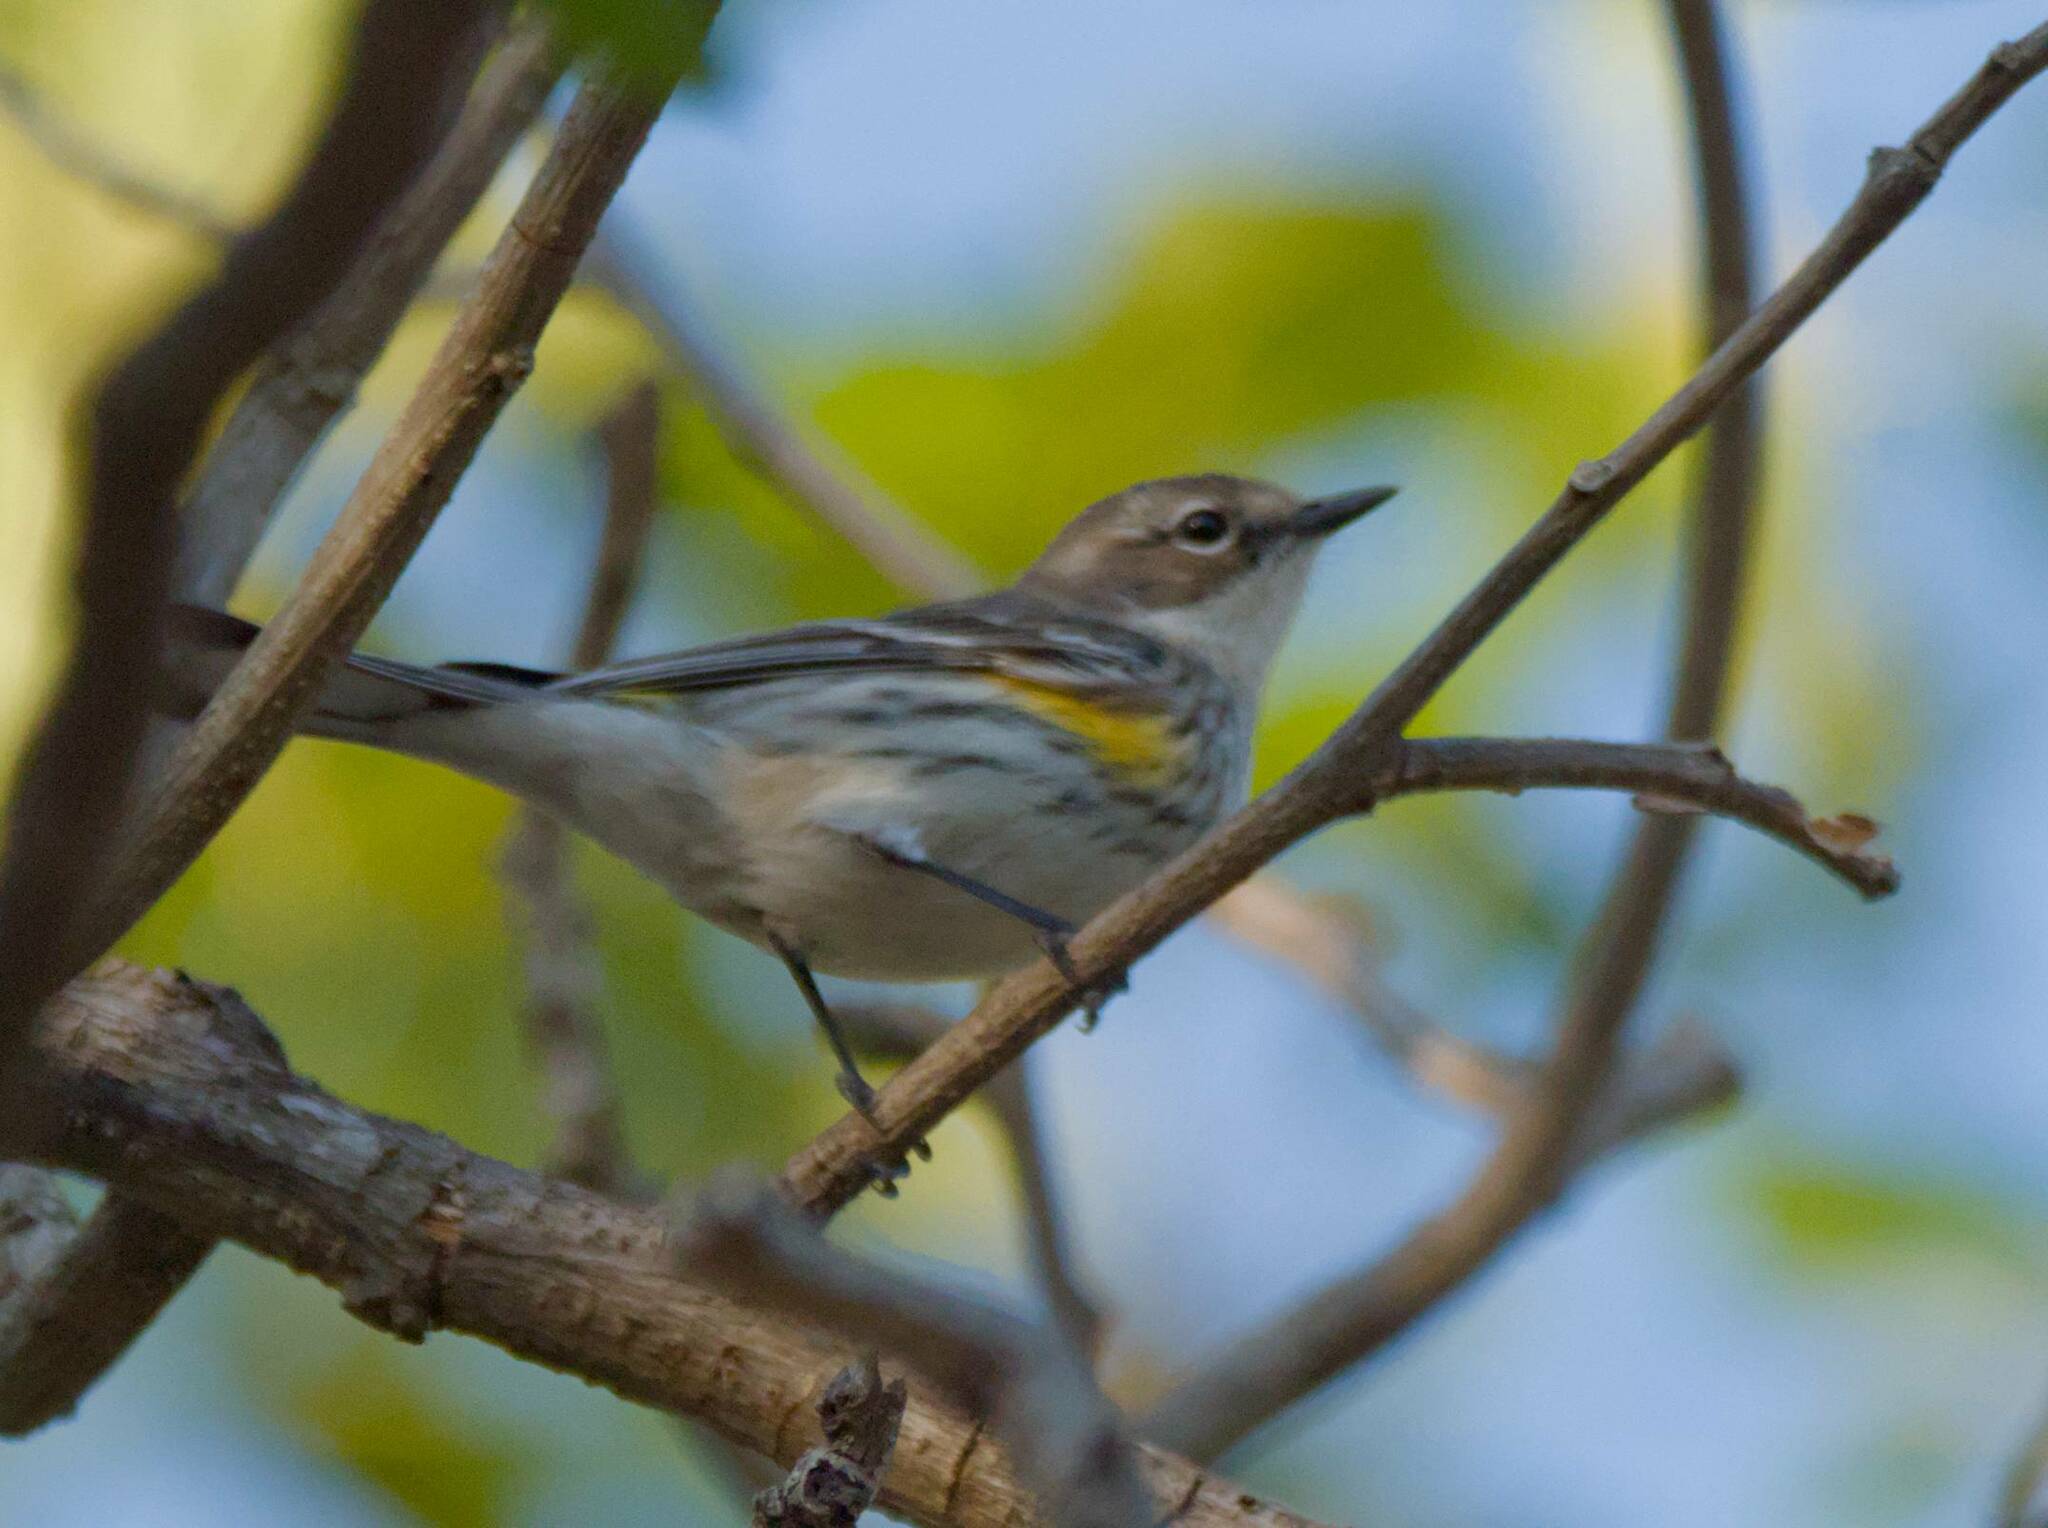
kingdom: Animalia
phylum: Chordata
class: Aves
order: Passeriformes
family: Parulidae
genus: Setophaga
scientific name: Setophaga coronata
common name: Myrtle warbler
